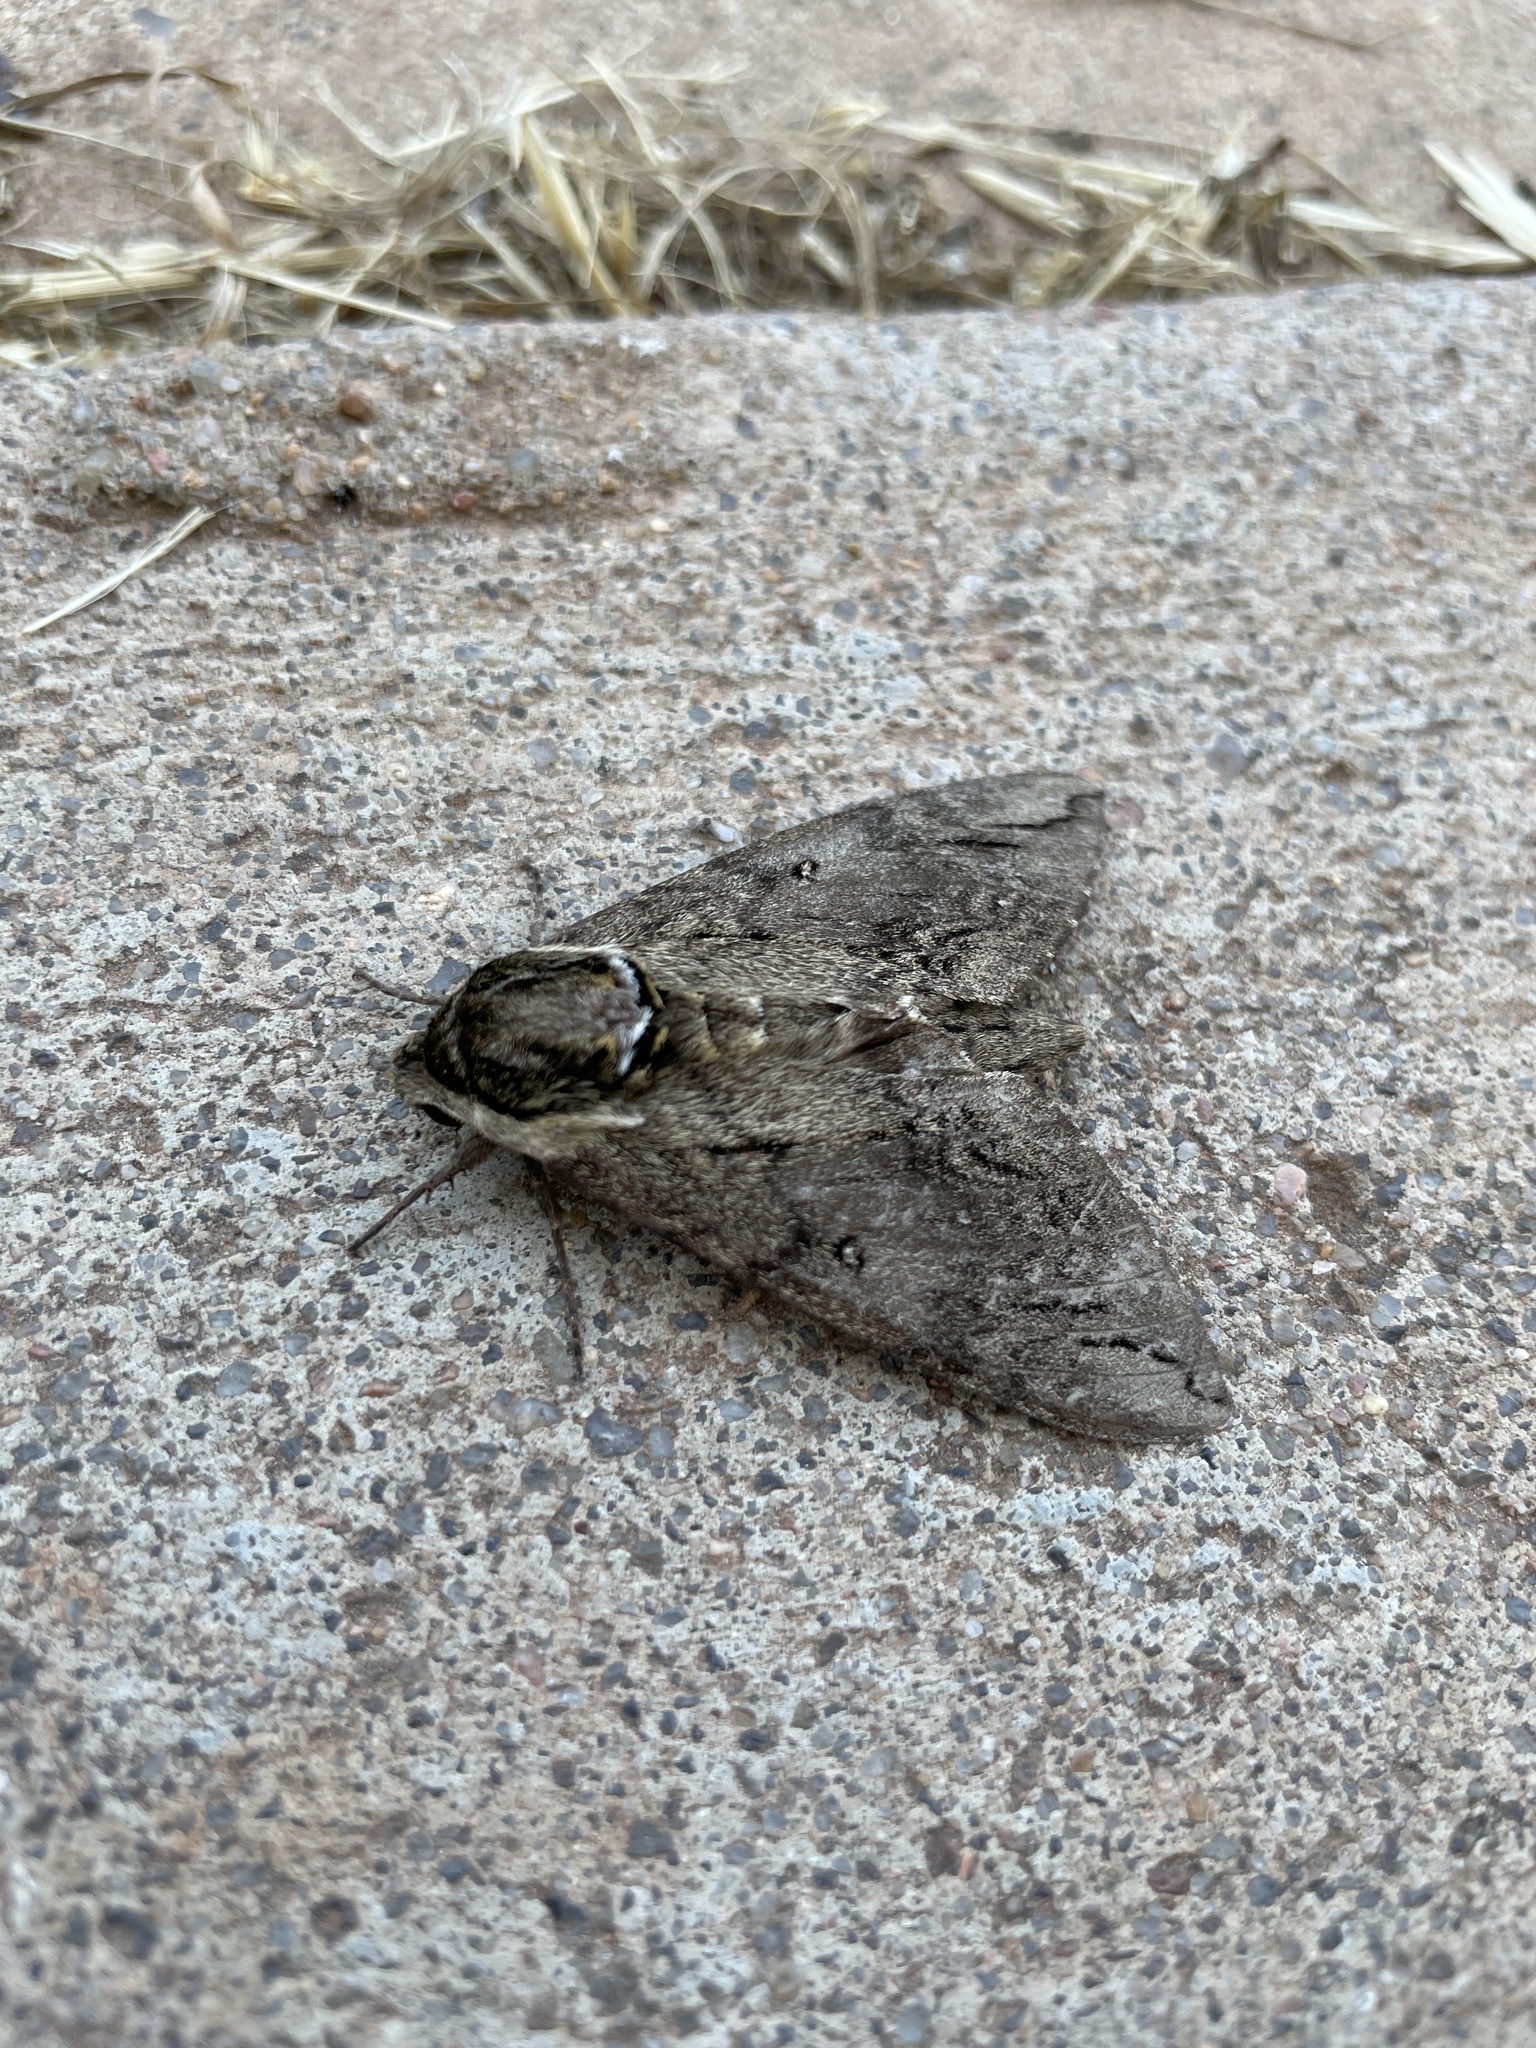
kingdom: Animalia
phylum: Arthropoda
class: Insecta
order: Lepidoptera
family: Sphingidae
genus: Ceratomia
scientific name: Ceratomia catalpae
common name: Catalpa hornworm
